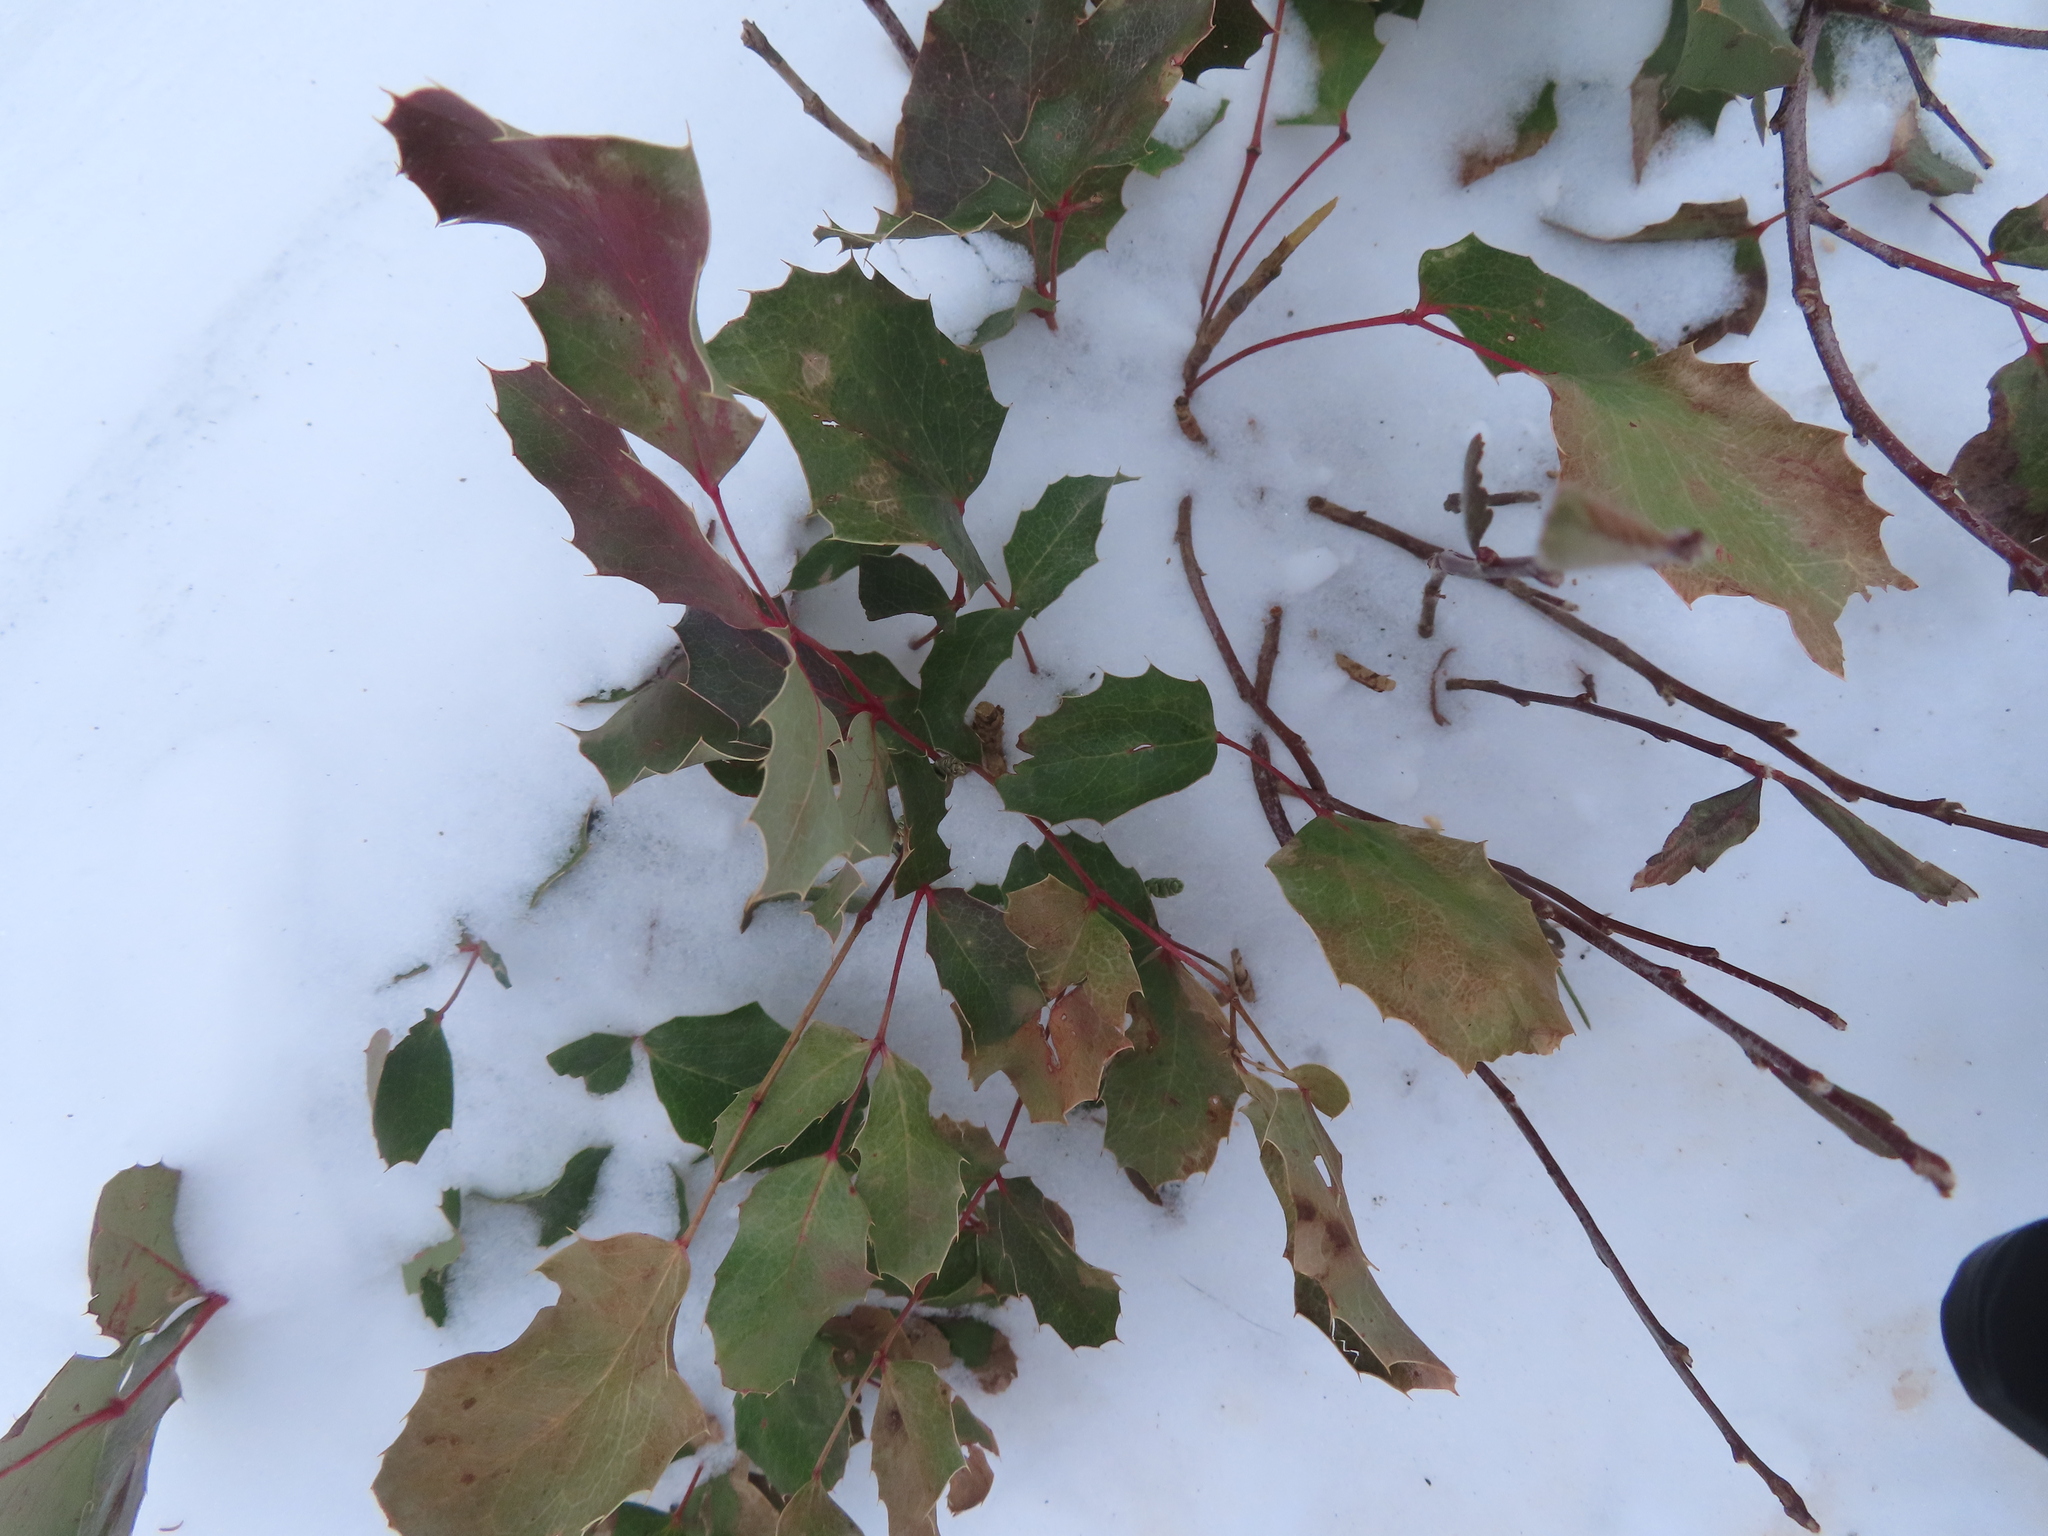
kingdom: Plantae
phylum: Tracheophyta
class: Magnoliopsida
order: Ranunculales
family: Berberidaceae
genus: Mahonia
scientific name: Mahonia repens
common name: Creeping oregon-grape
